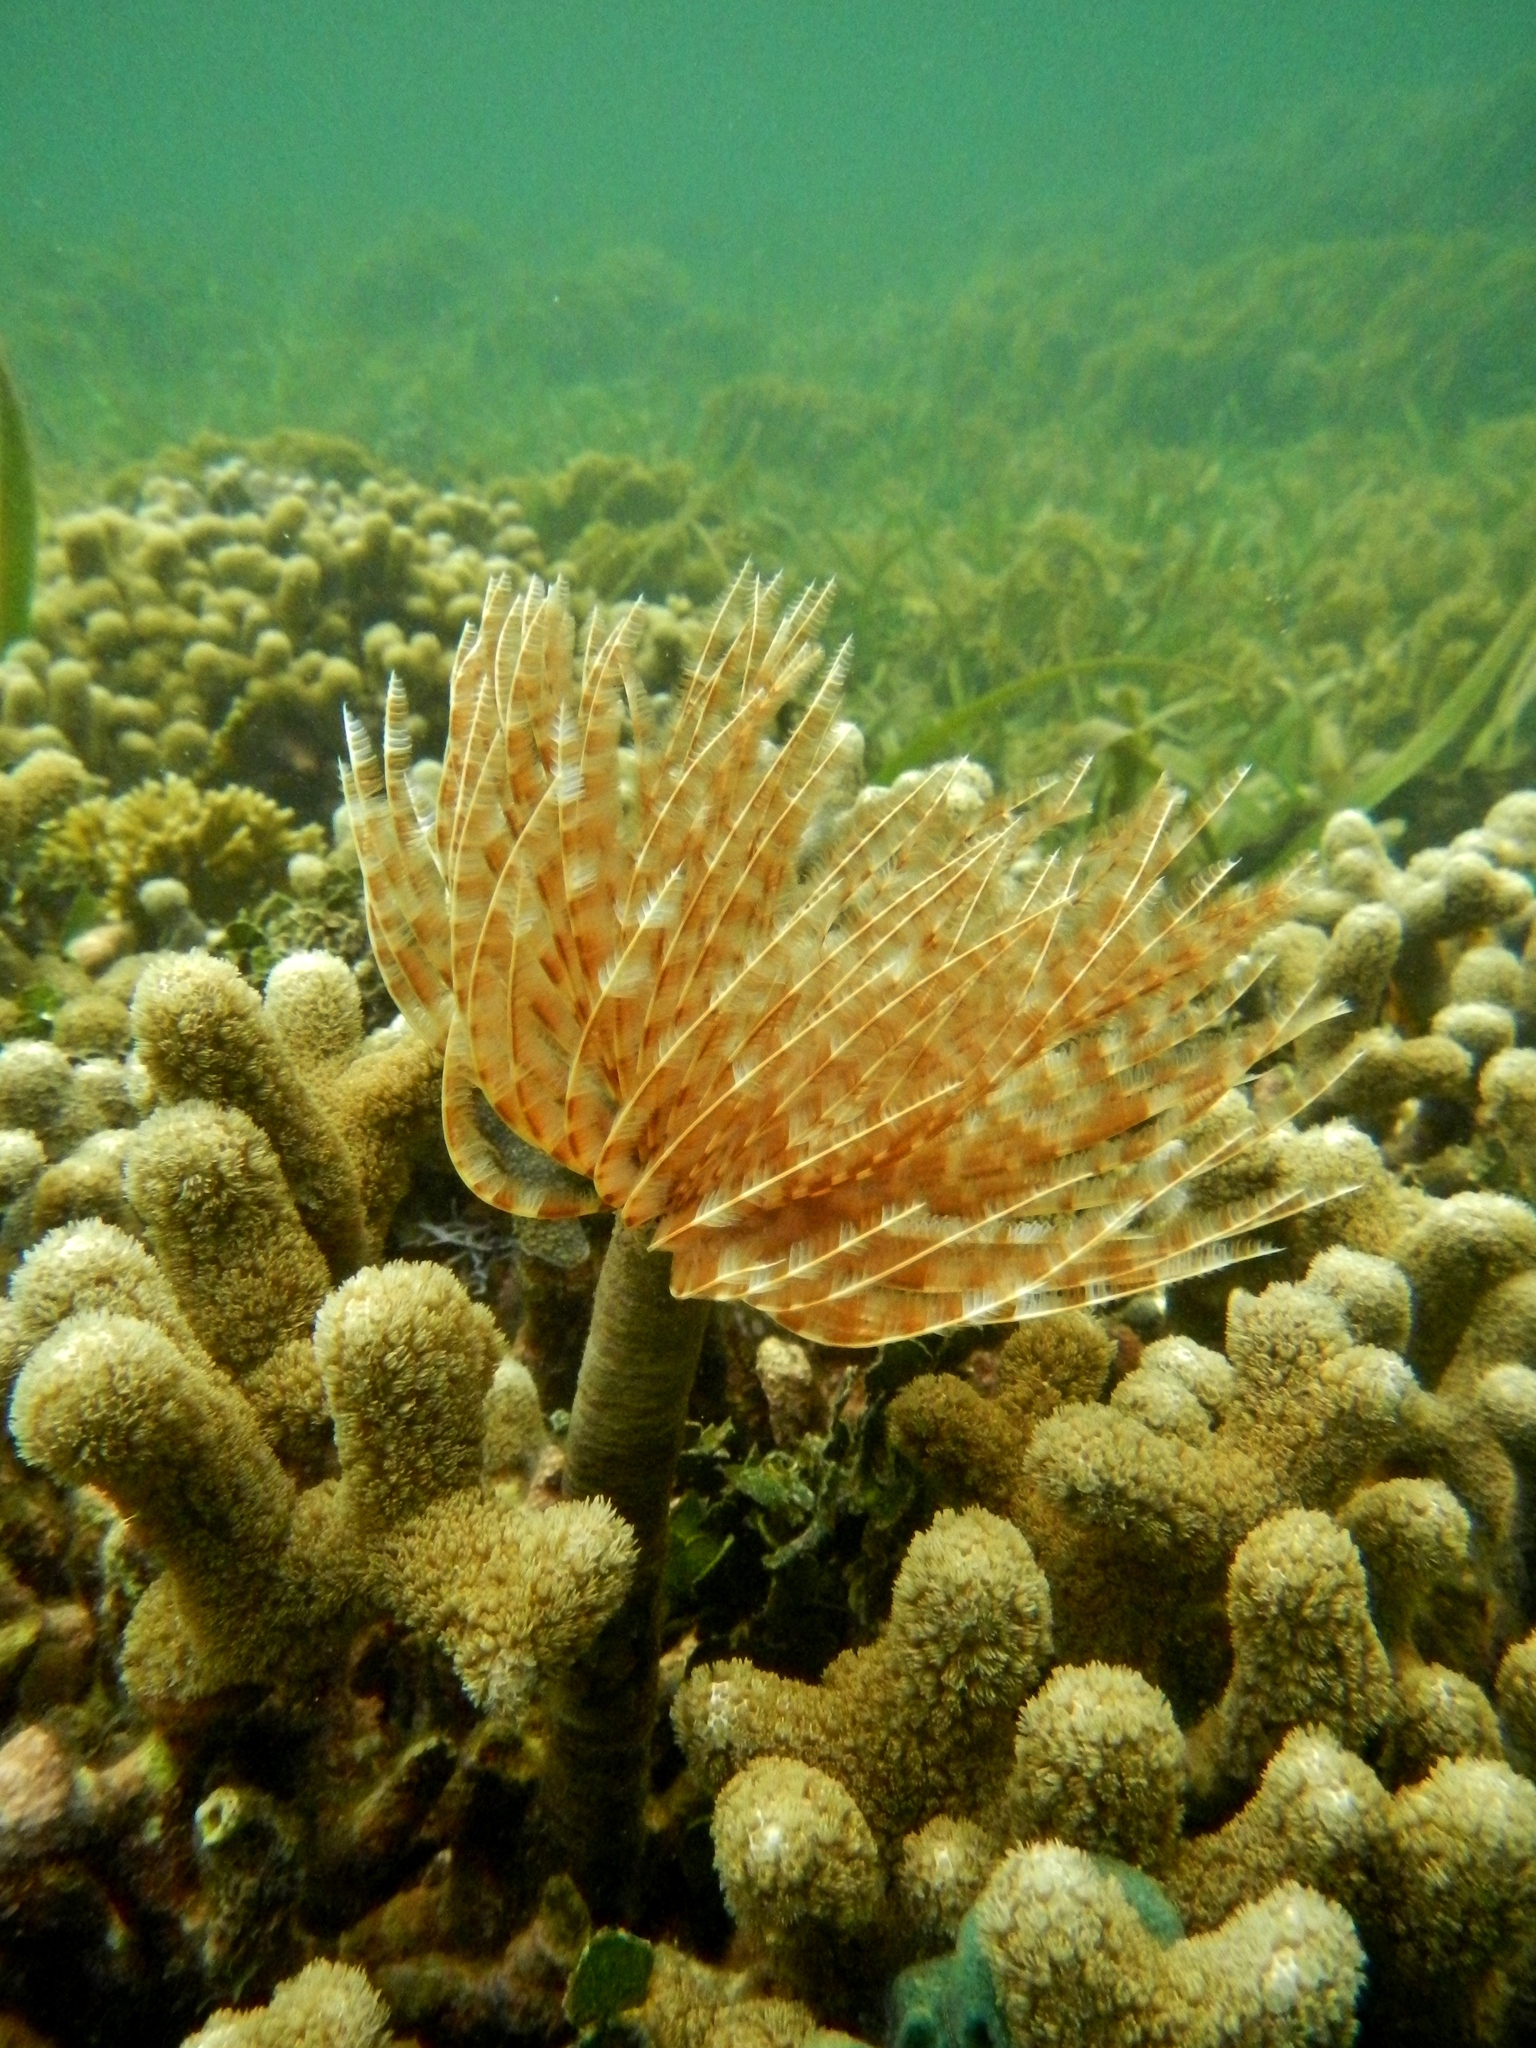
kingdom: Animalia
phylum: Annelida
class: Polychaeta
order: Sabellida
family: Sabellidae
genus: Sabellastarte
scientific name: Sabellastarte magnifica
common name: Giant feather-duster worm
